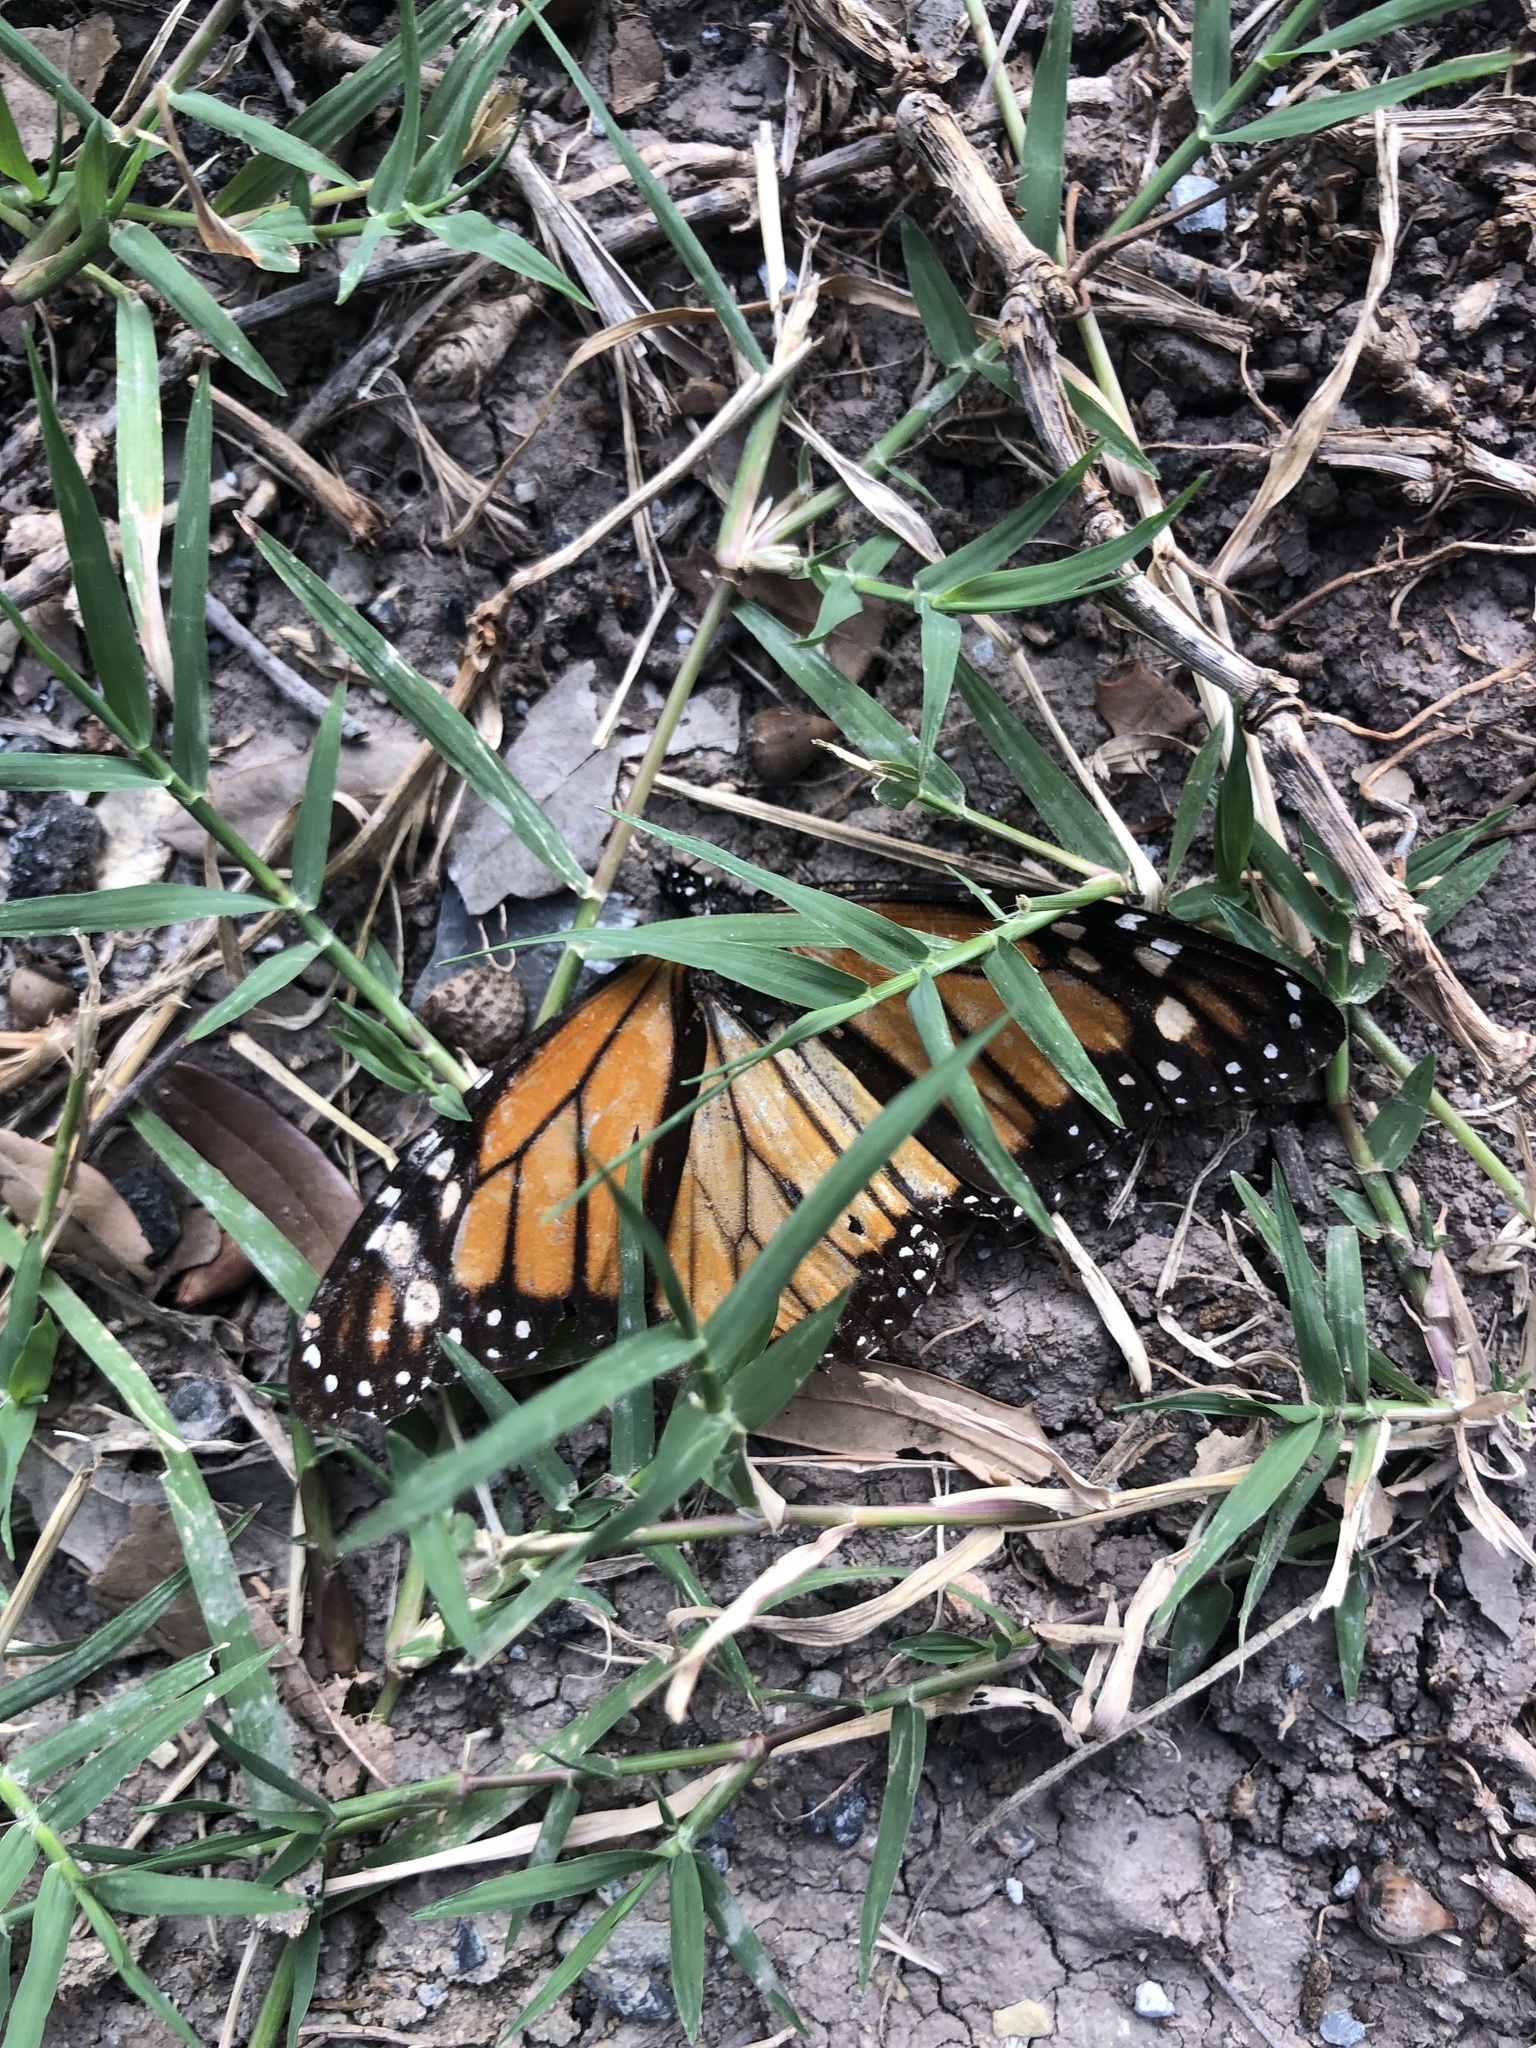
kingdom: Animalia
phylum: Arthropoda
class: Insecta
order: Lepidoptera
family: Nymphalidae
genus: Danaus
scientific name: Danaus plexippus
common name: Monarch
